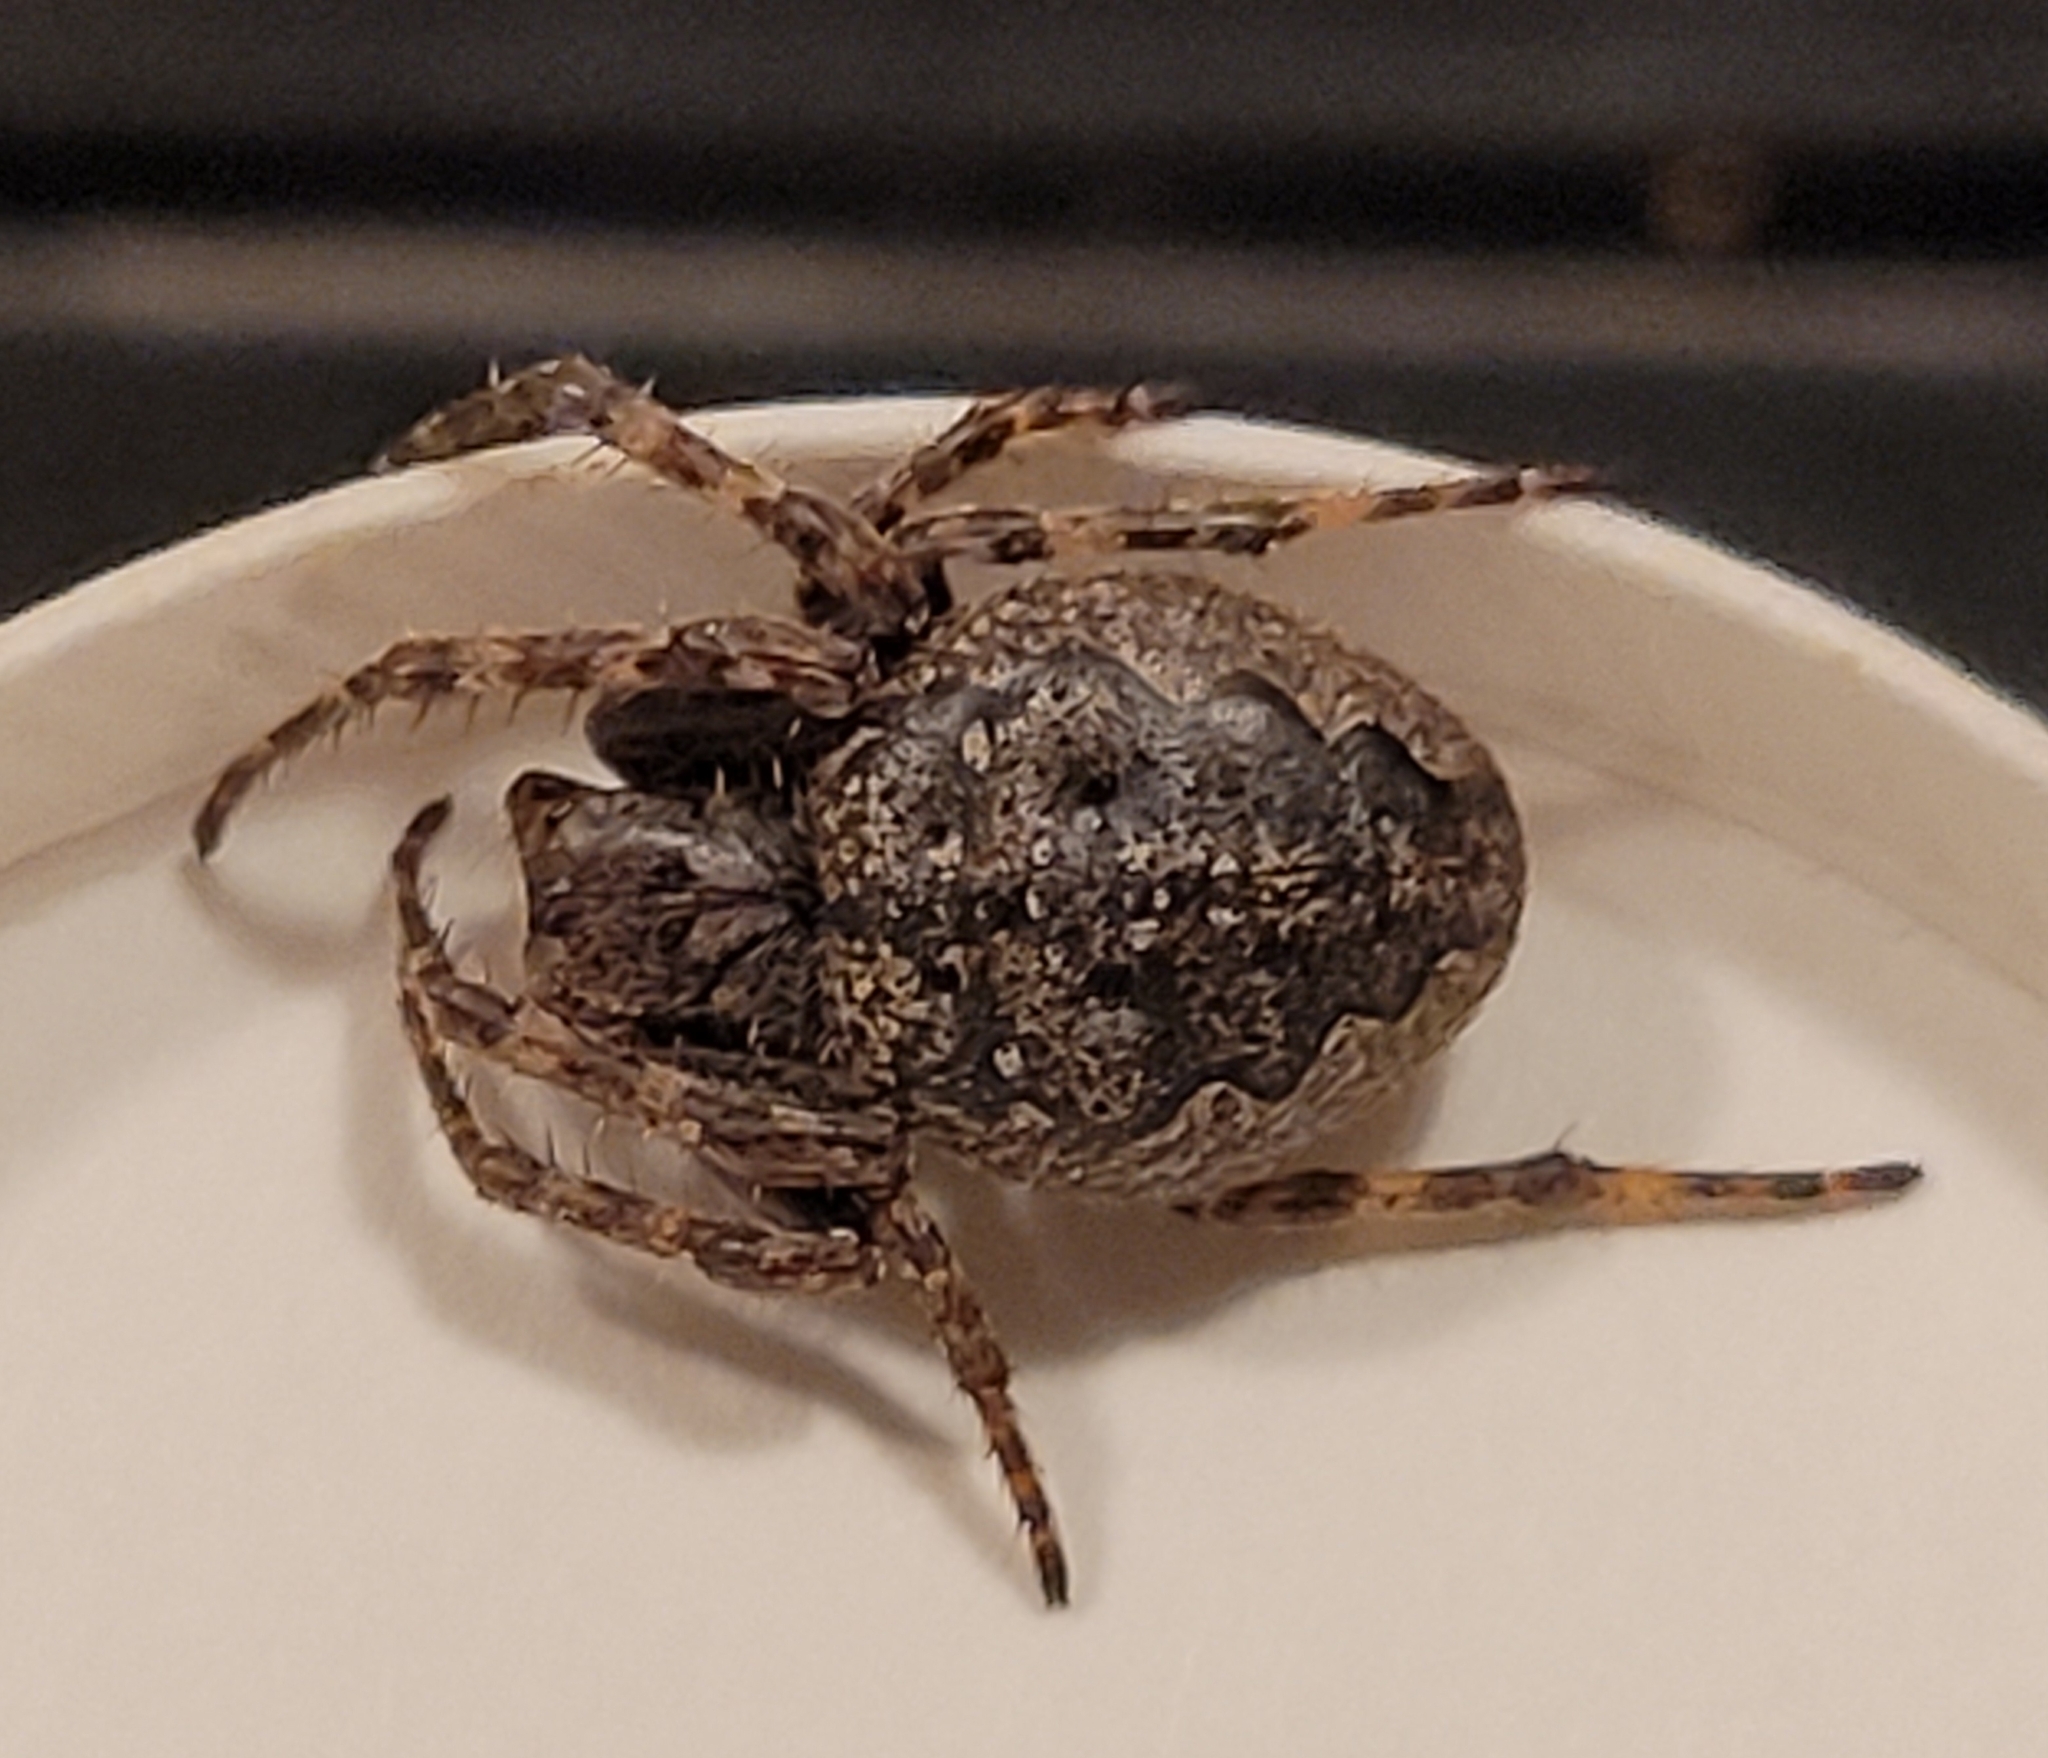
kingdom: Animalia
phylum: Arthropoda
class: Arachnida
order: Araneae
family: Araneidae
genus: Nuctenea
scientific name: Nuctenea umbratica
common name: Toad spider
